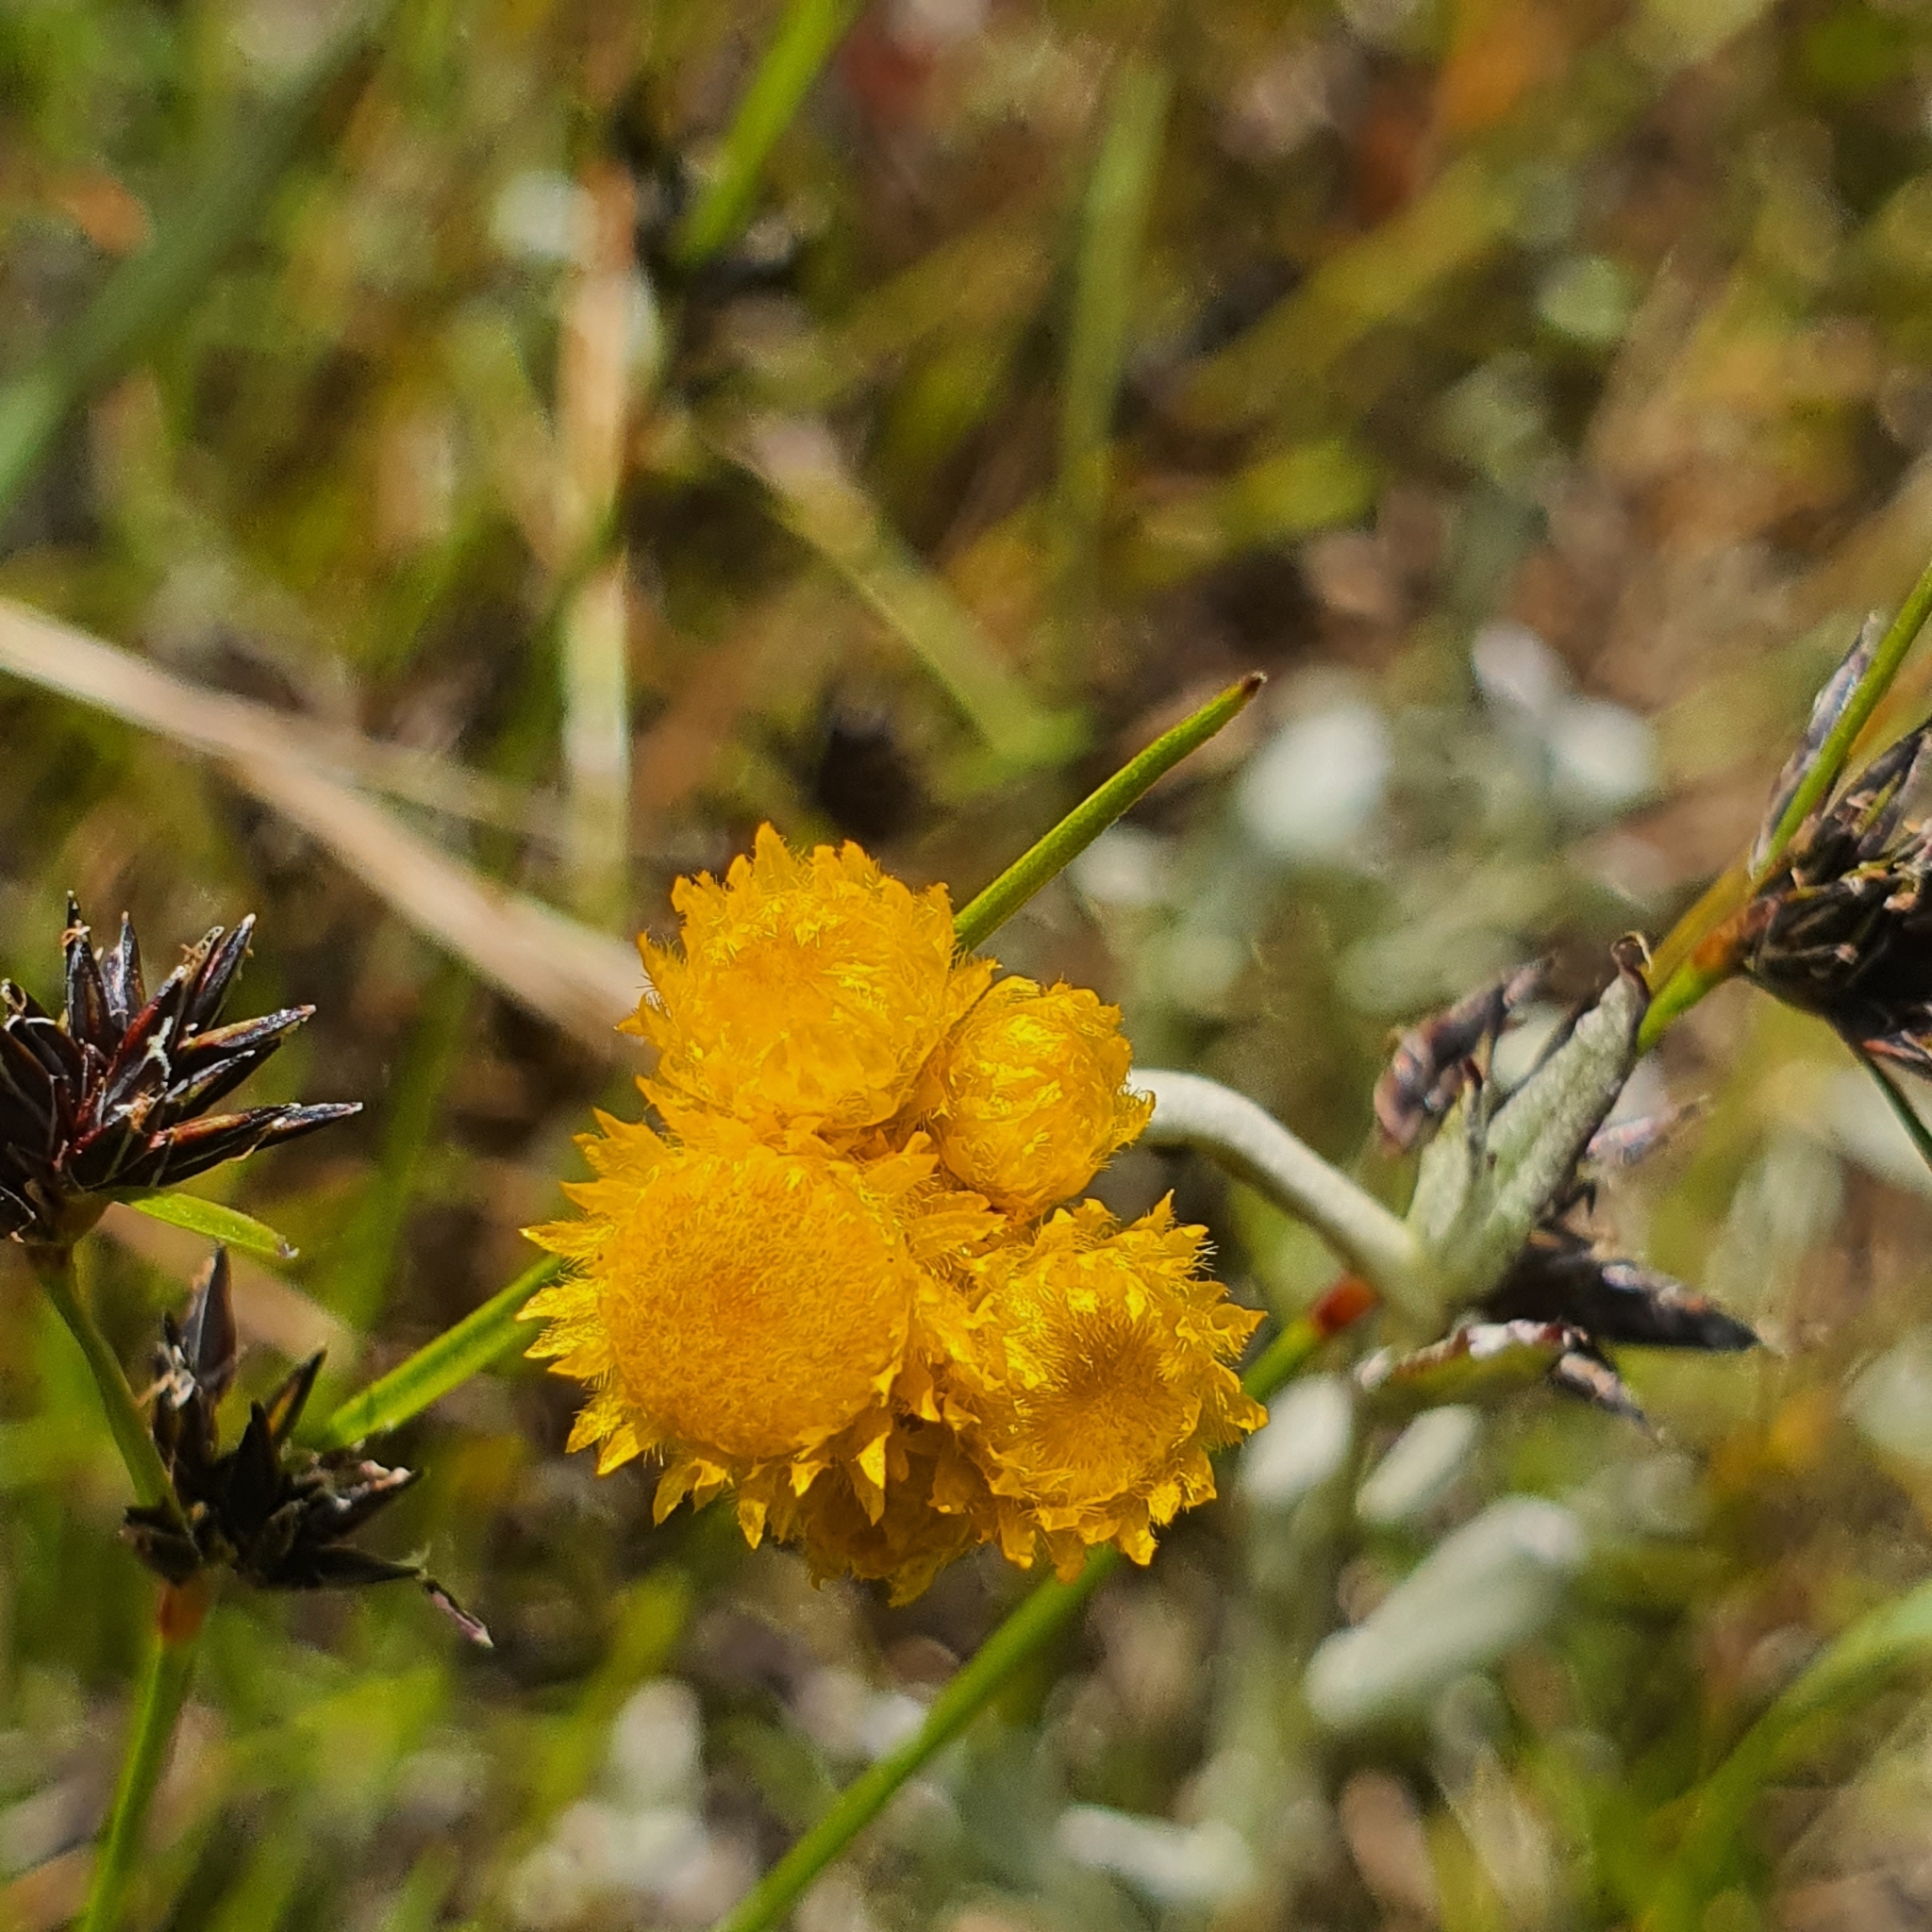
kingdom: Plantae
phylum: Tracheophyta
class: Magnoliopsida
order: Asterales
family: Asteraceae
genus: Chrysocephalum
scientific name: Chrysocephalum apiculatum
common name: Common everlasting
